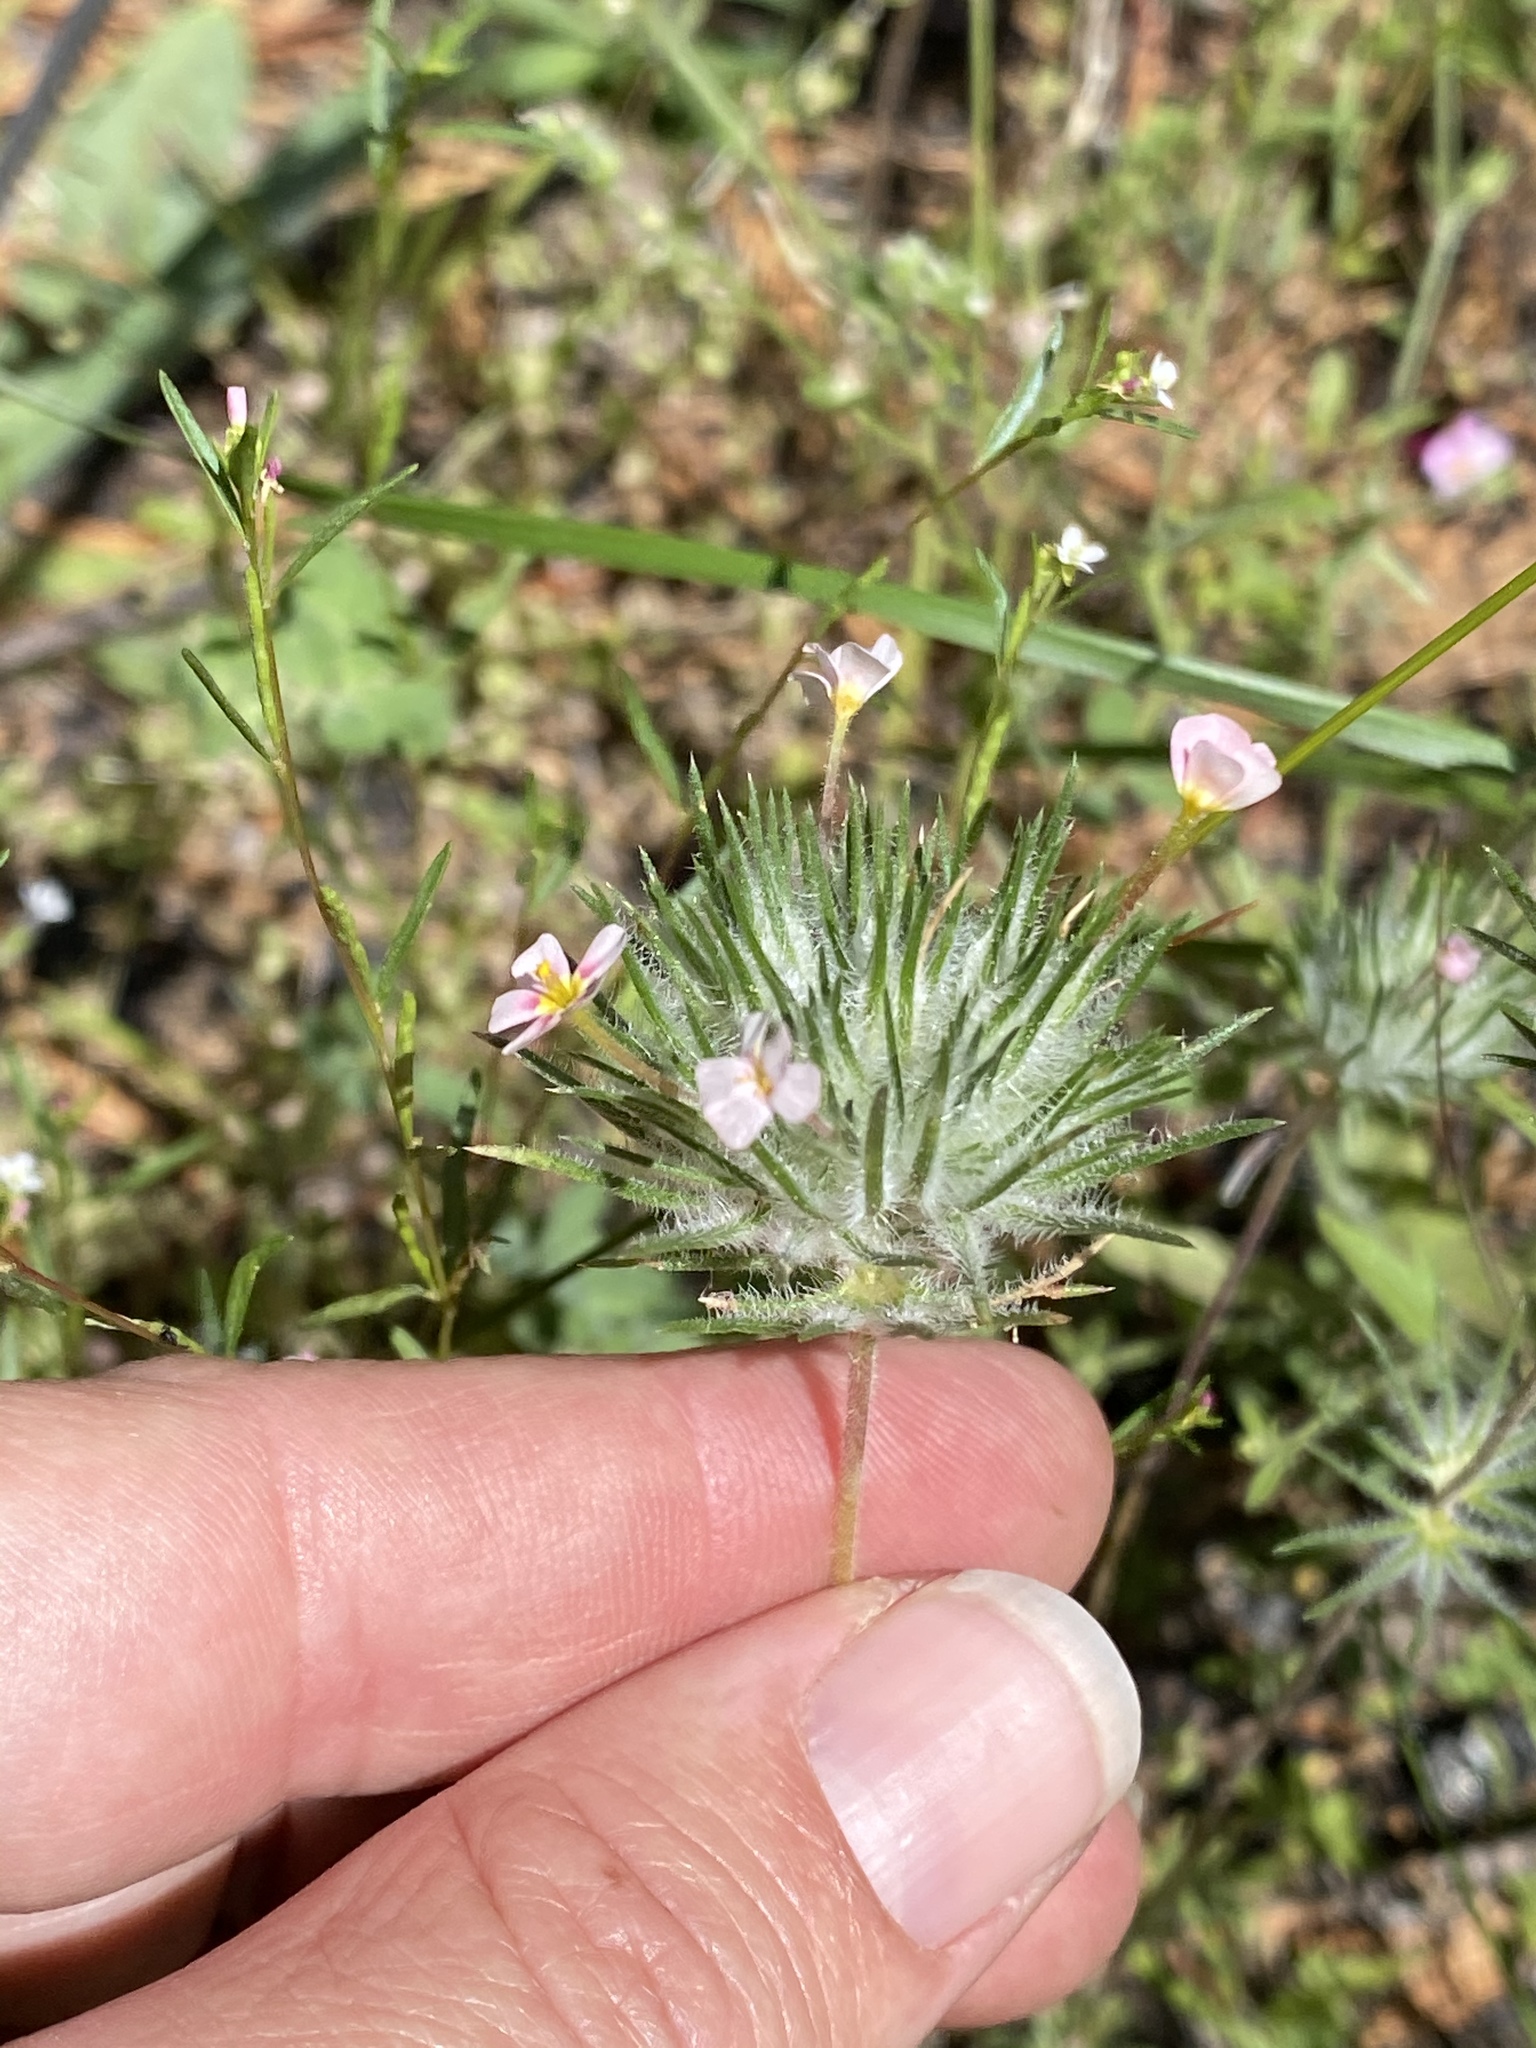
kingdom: Plantae
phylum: Tracheophyta
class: Magnoliopsida
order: Ericales
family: Polemoniaceae
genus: Leptosiphon
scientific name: Leptosiphon ciliatus
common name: Whiskerbrush
